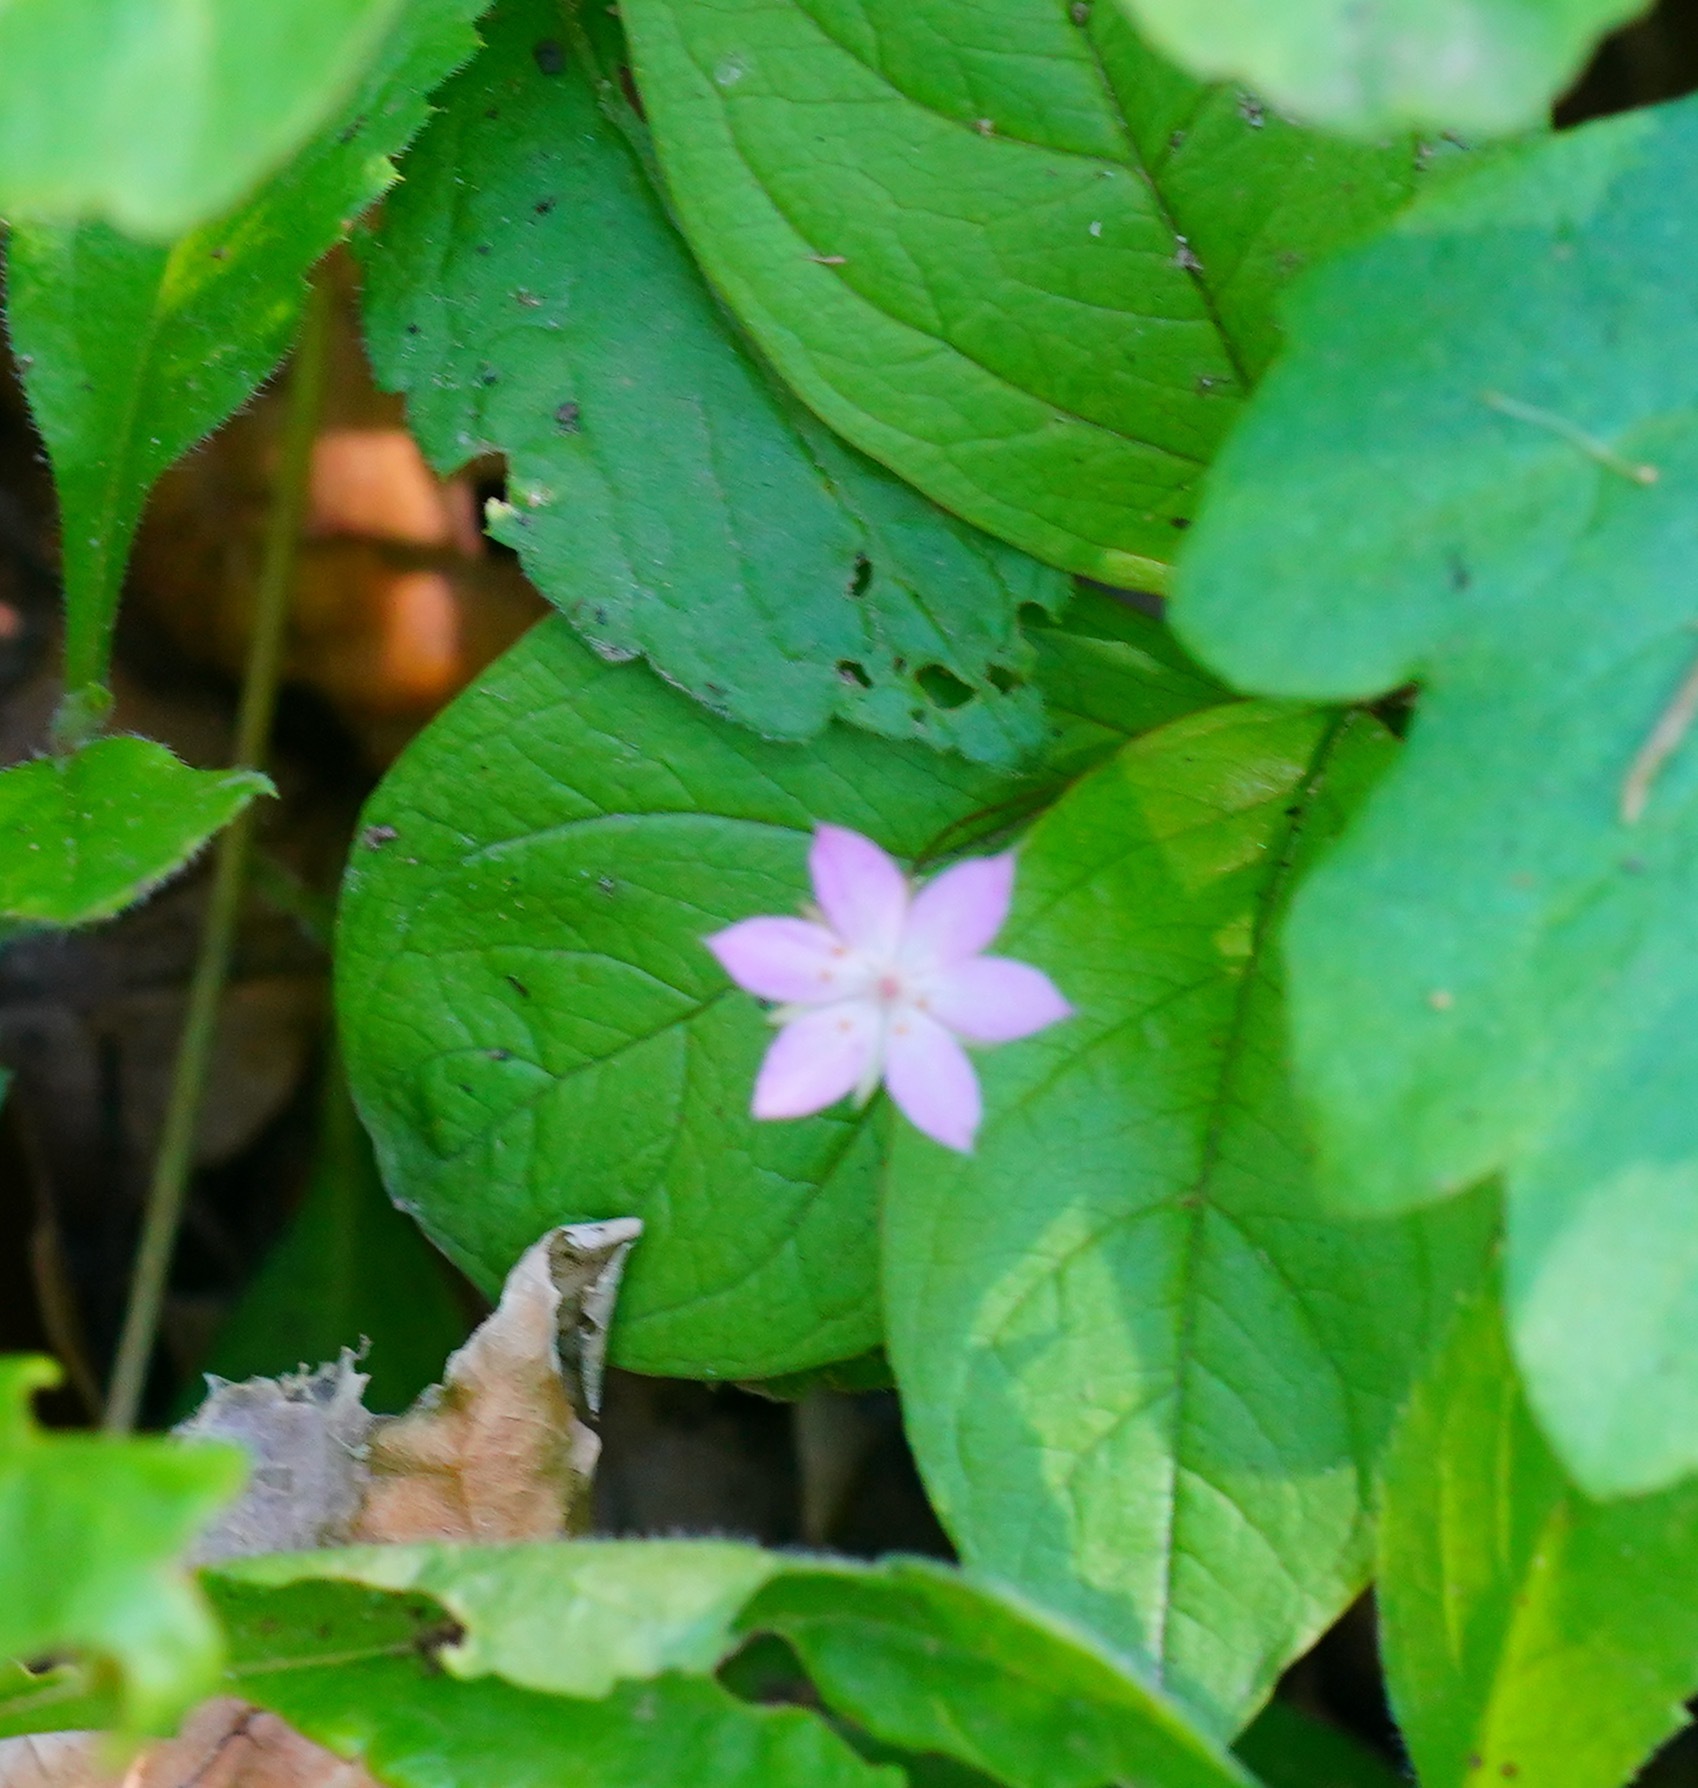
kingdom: Plantae
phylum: Tracheophyta
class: Magnoliopsida
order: Ericales
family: Primulaceae
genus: Lysimachia
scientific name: Lysimachia latifolia
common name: Pacific starflower
